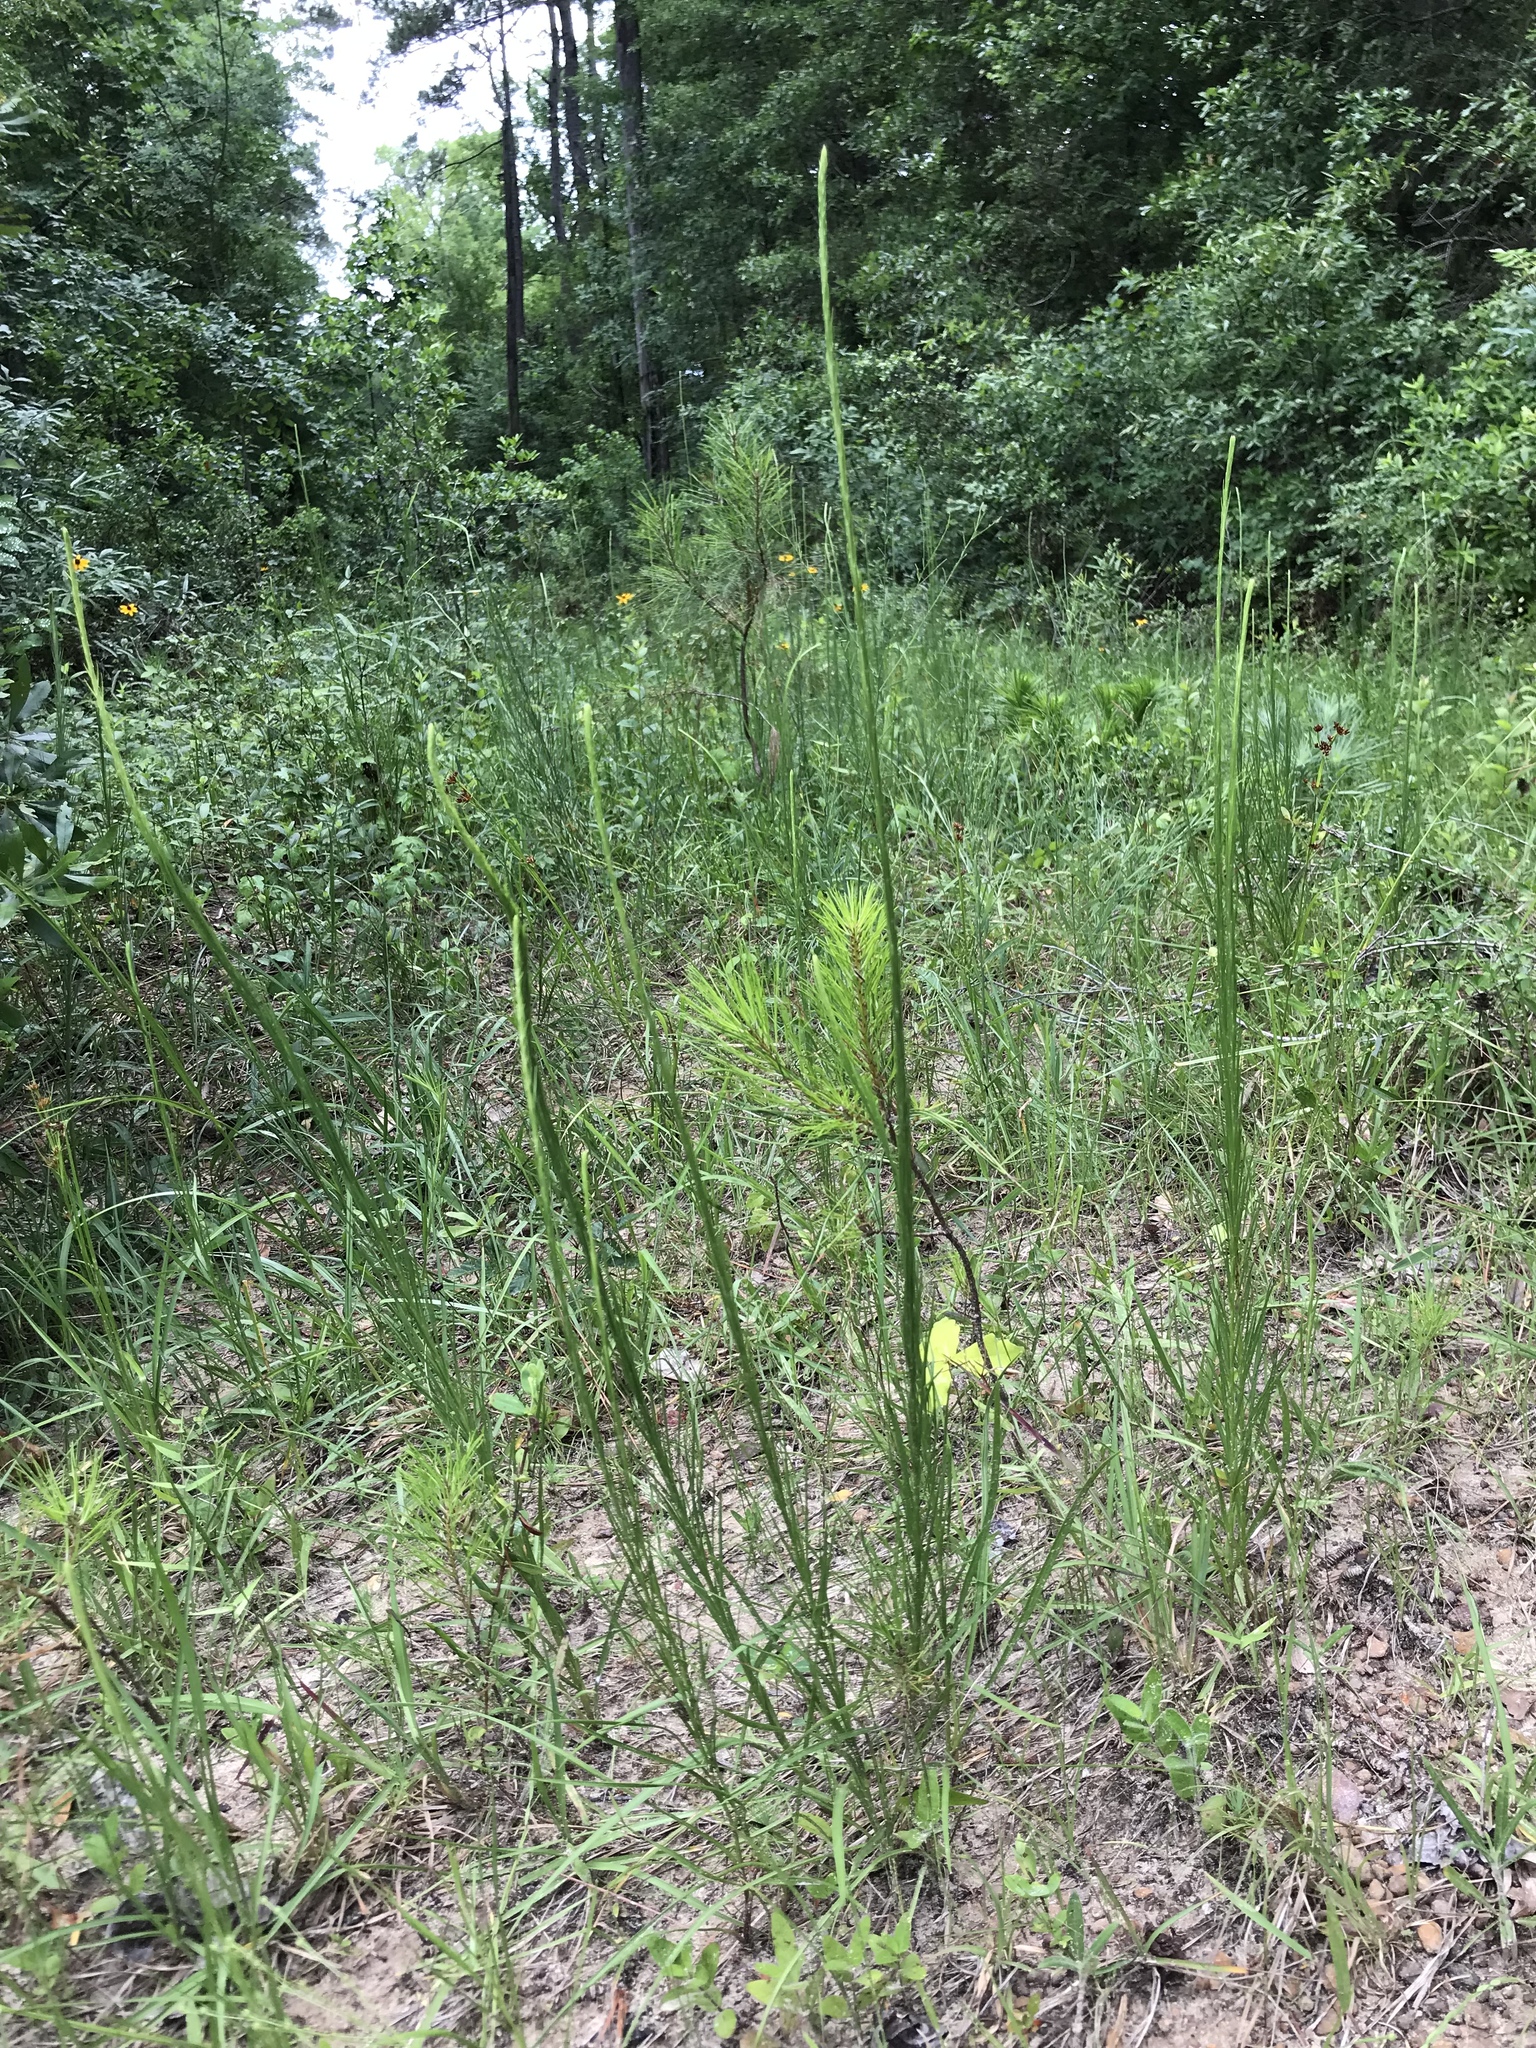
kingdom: Plantae
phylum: Tracheophyta
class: Magnoliopsida
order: Asterales
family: Asteraceae
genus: Liatris
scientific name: Liatris acidota
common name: Gulf coast gayfeather
